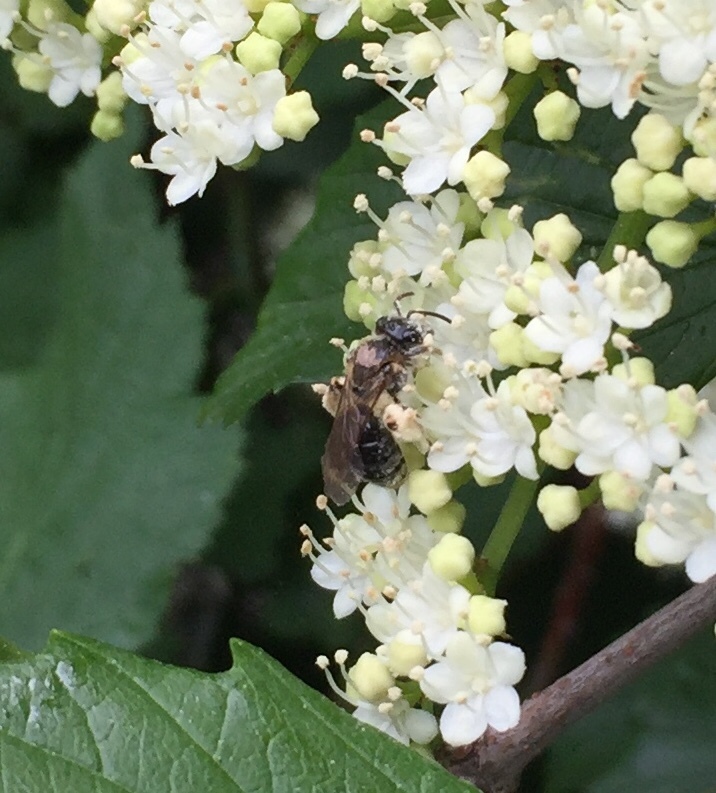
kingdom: Animalia
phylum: Arthropoda
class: Insecta
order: Hymenoptera
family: Andrenidae
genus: Andrena
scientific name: Andrena
